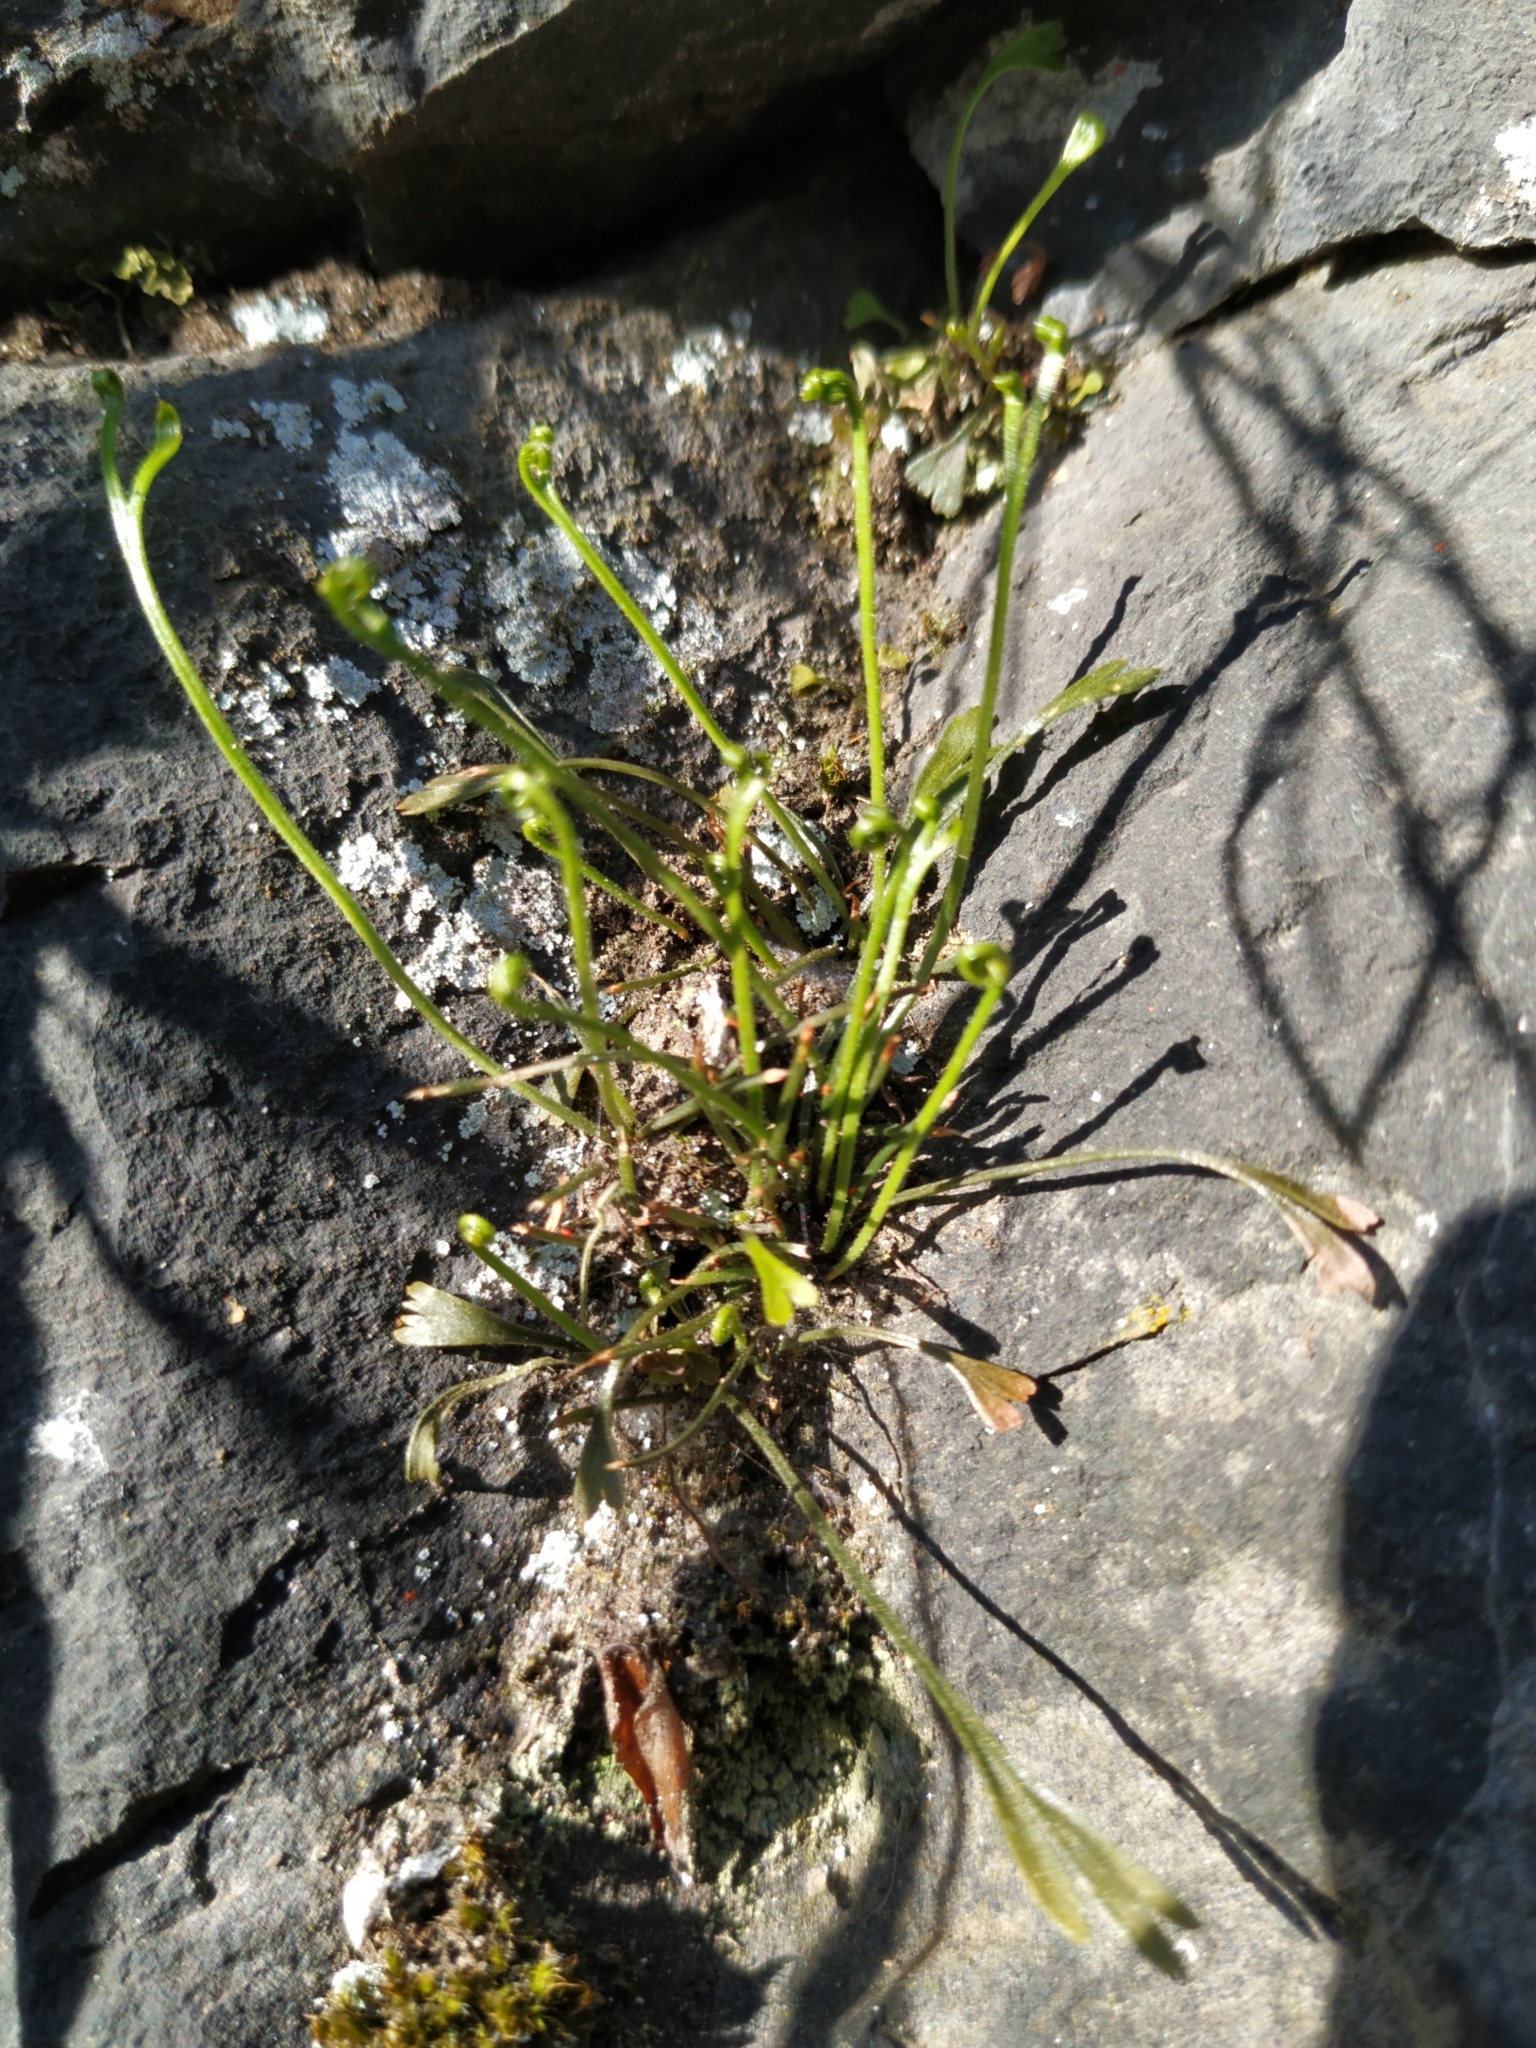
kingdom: Plantae
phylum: Tracheophyta
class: Polypodiopsida
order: Polypodiales
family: Aspleniaceae
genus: Asplenium
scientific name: Asplenium septentrionale
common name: Forked spleenwort
